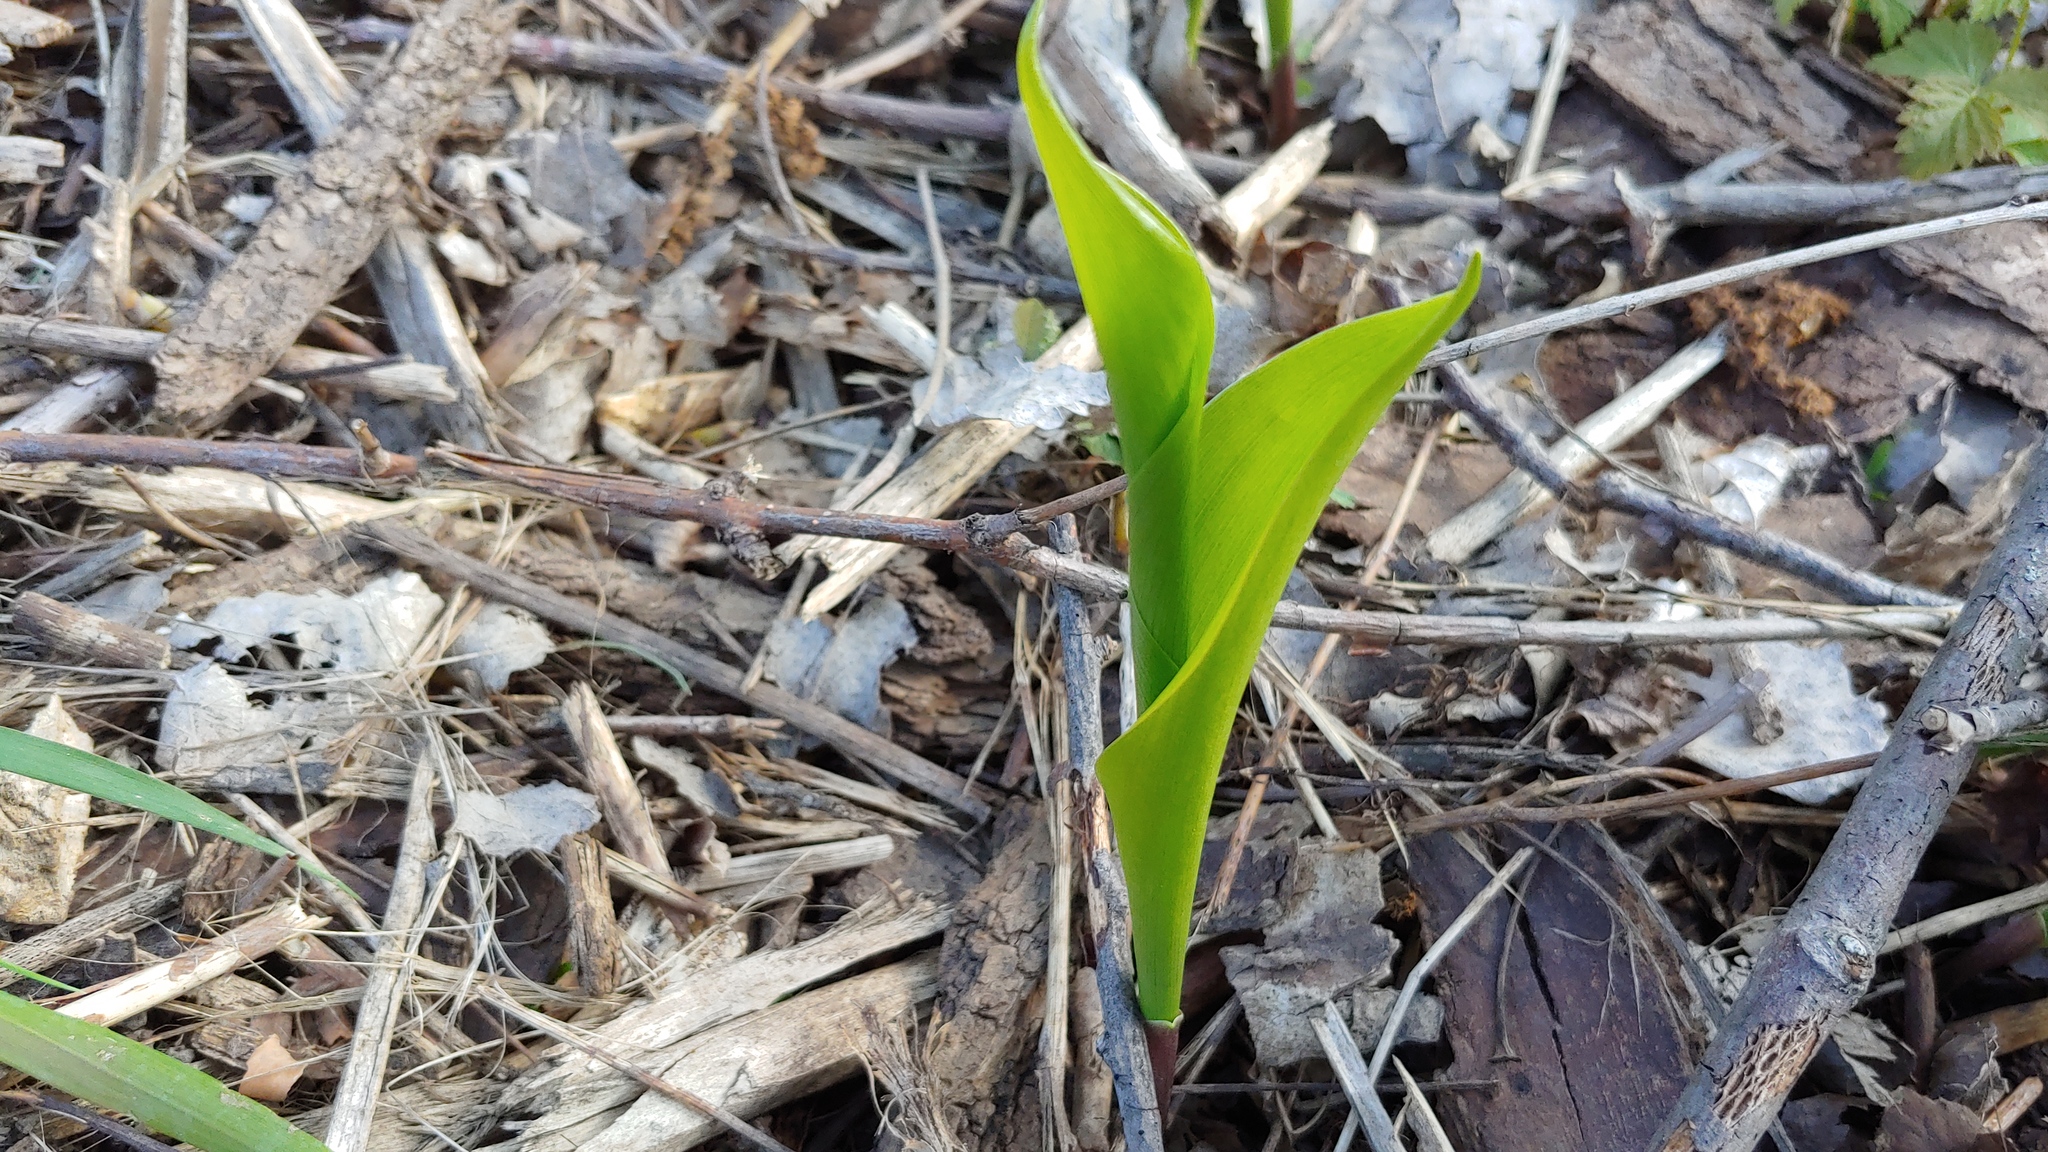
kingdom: Plantae
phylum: Tracheophyta
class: Liliopsida
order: Asparagales
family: Asparagaceae
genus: Convallaria
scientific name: Convallaria majalis
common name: Lily-of-the-valley
